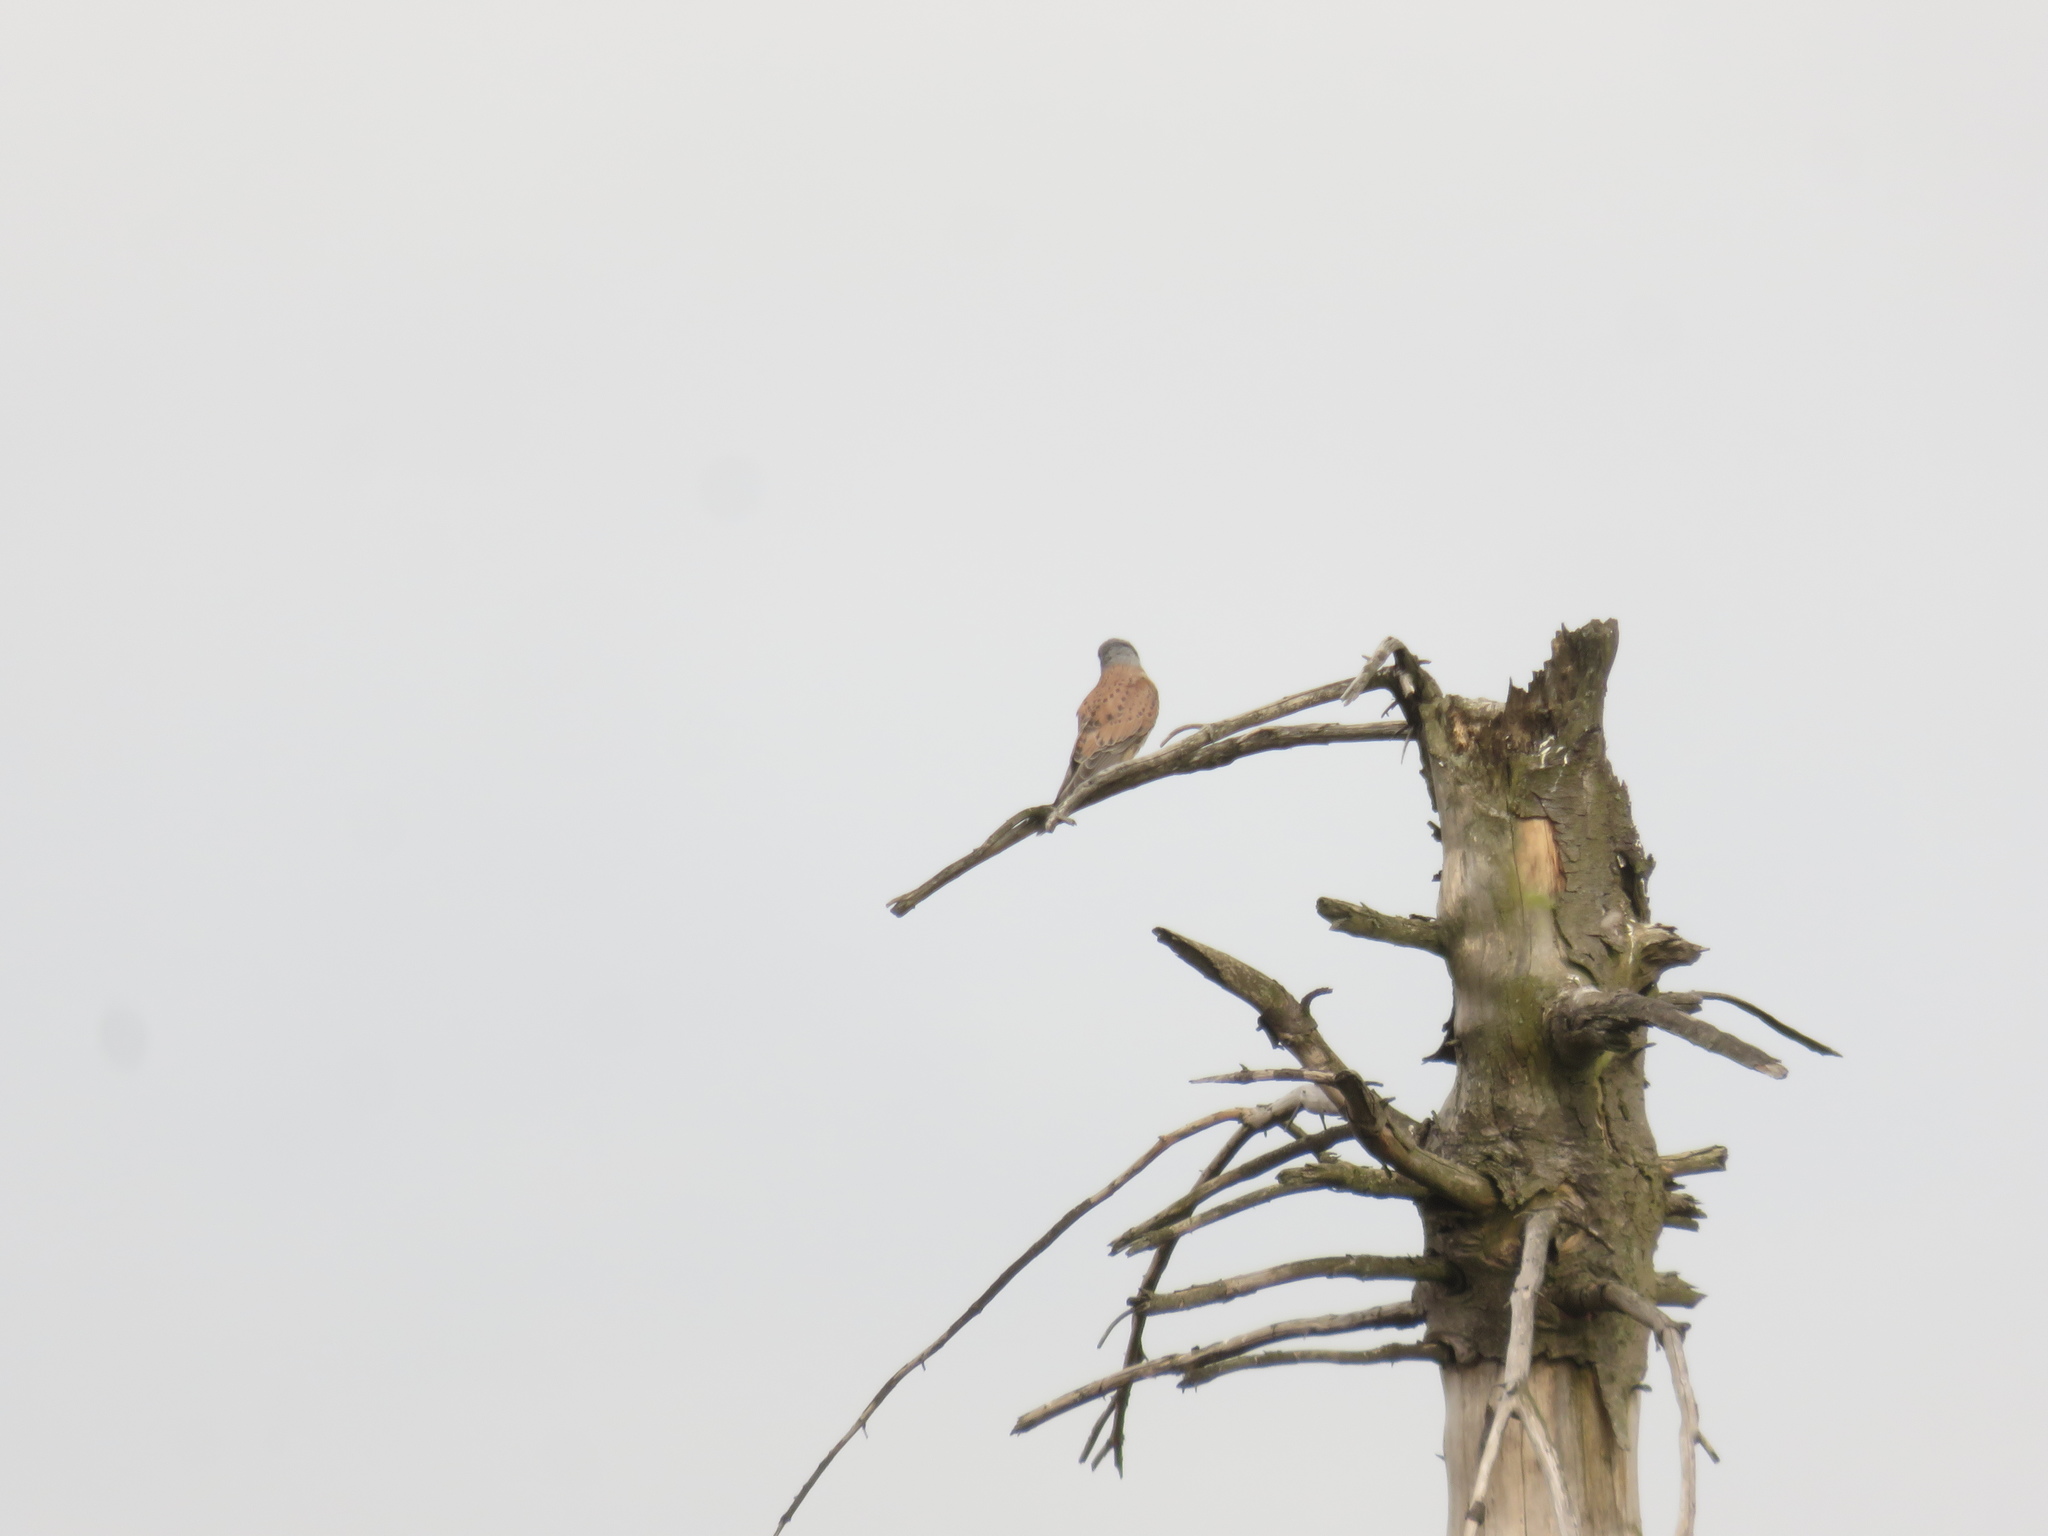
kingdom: Animalia
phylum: Chordata
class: Aves
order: Falconiformes
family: Falconidae
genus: Falco
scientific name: Falco tinnunculus
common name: Common kestrel
